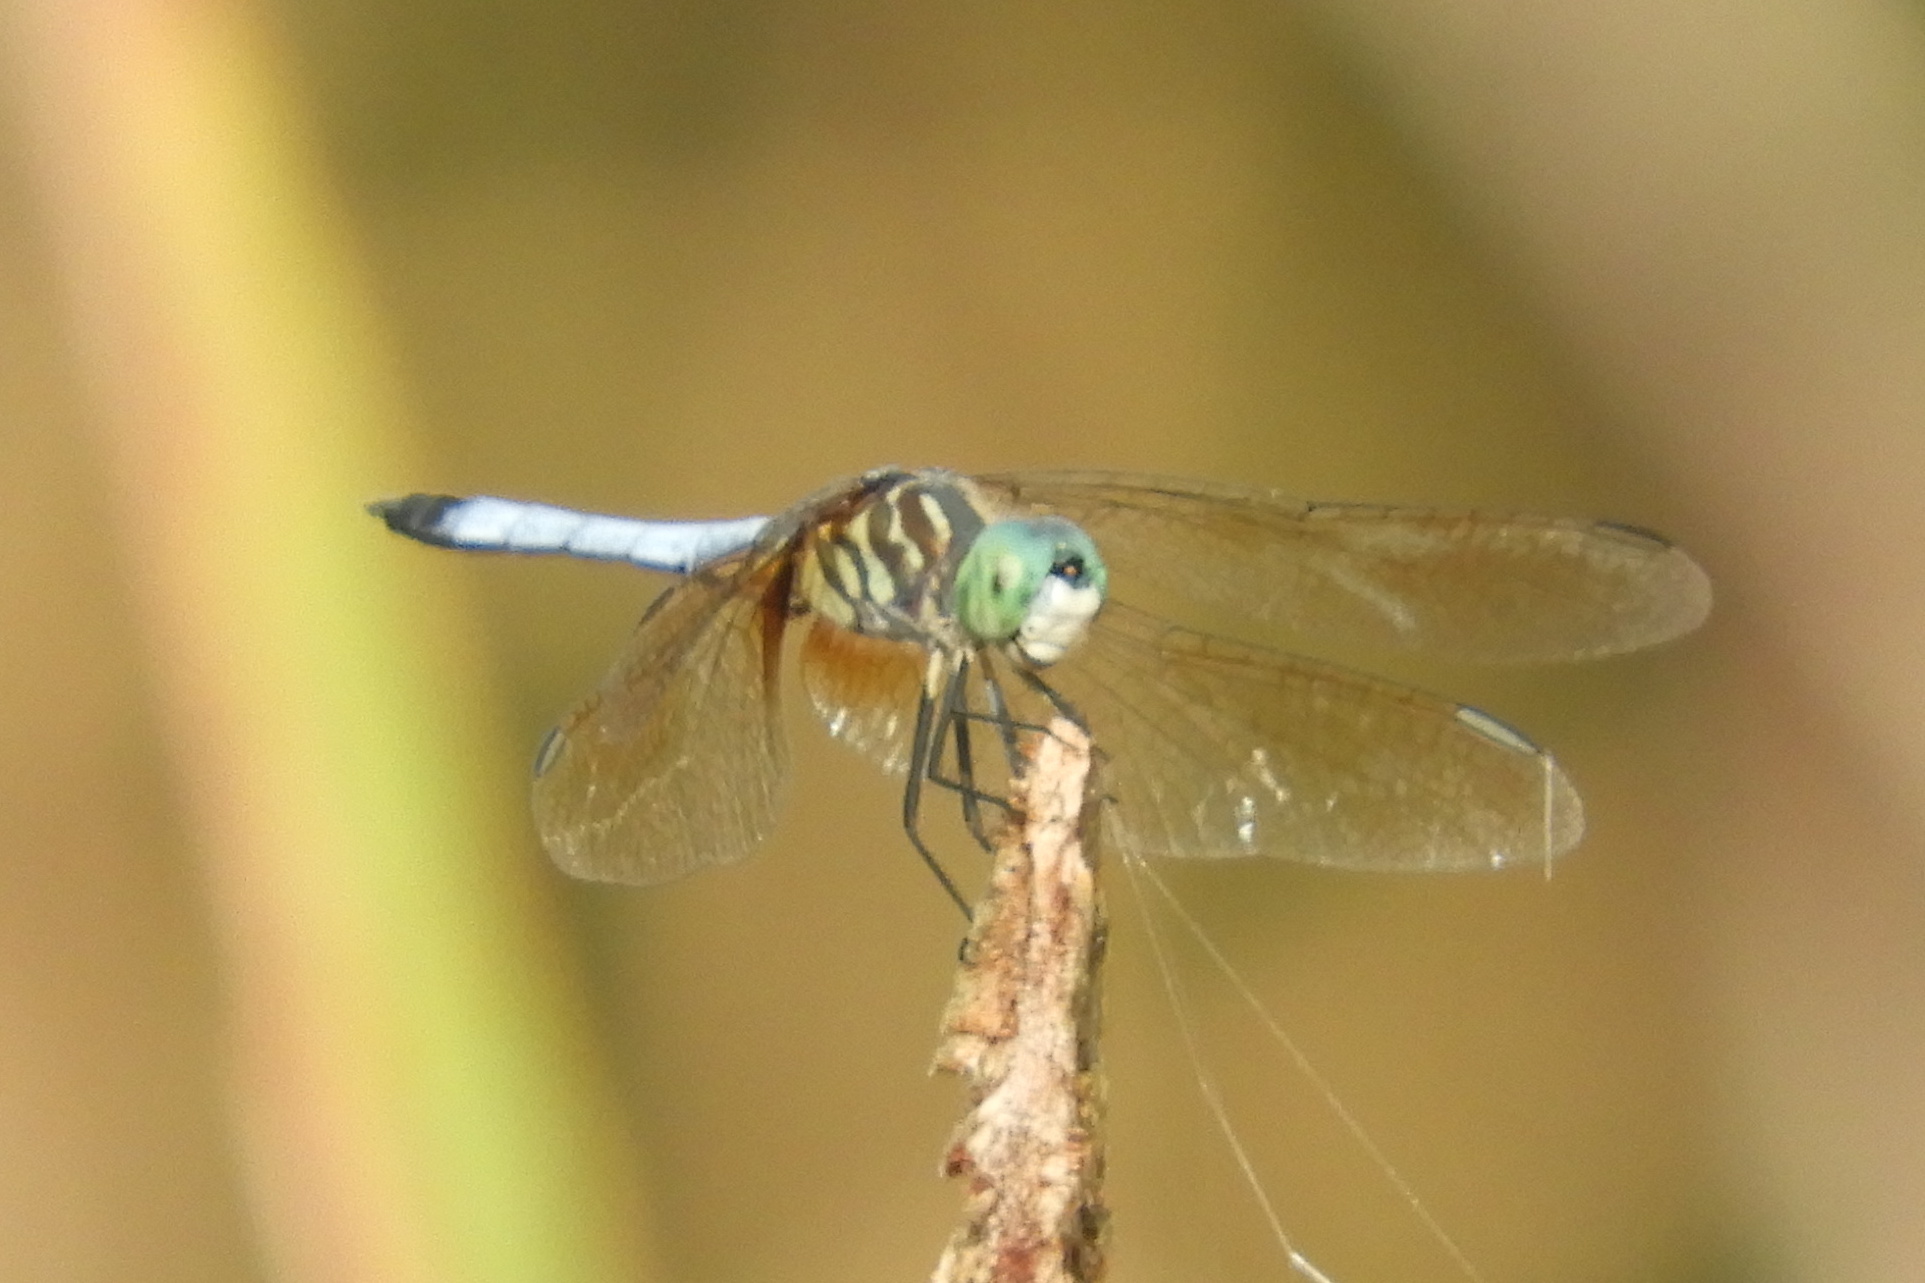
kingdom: Animalia
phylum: Arthropoda
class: Insecta
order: Odonata
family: Libellulidae
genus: Pachydiplax
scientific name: Pachydiplax longipennis
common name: Blue dasher
